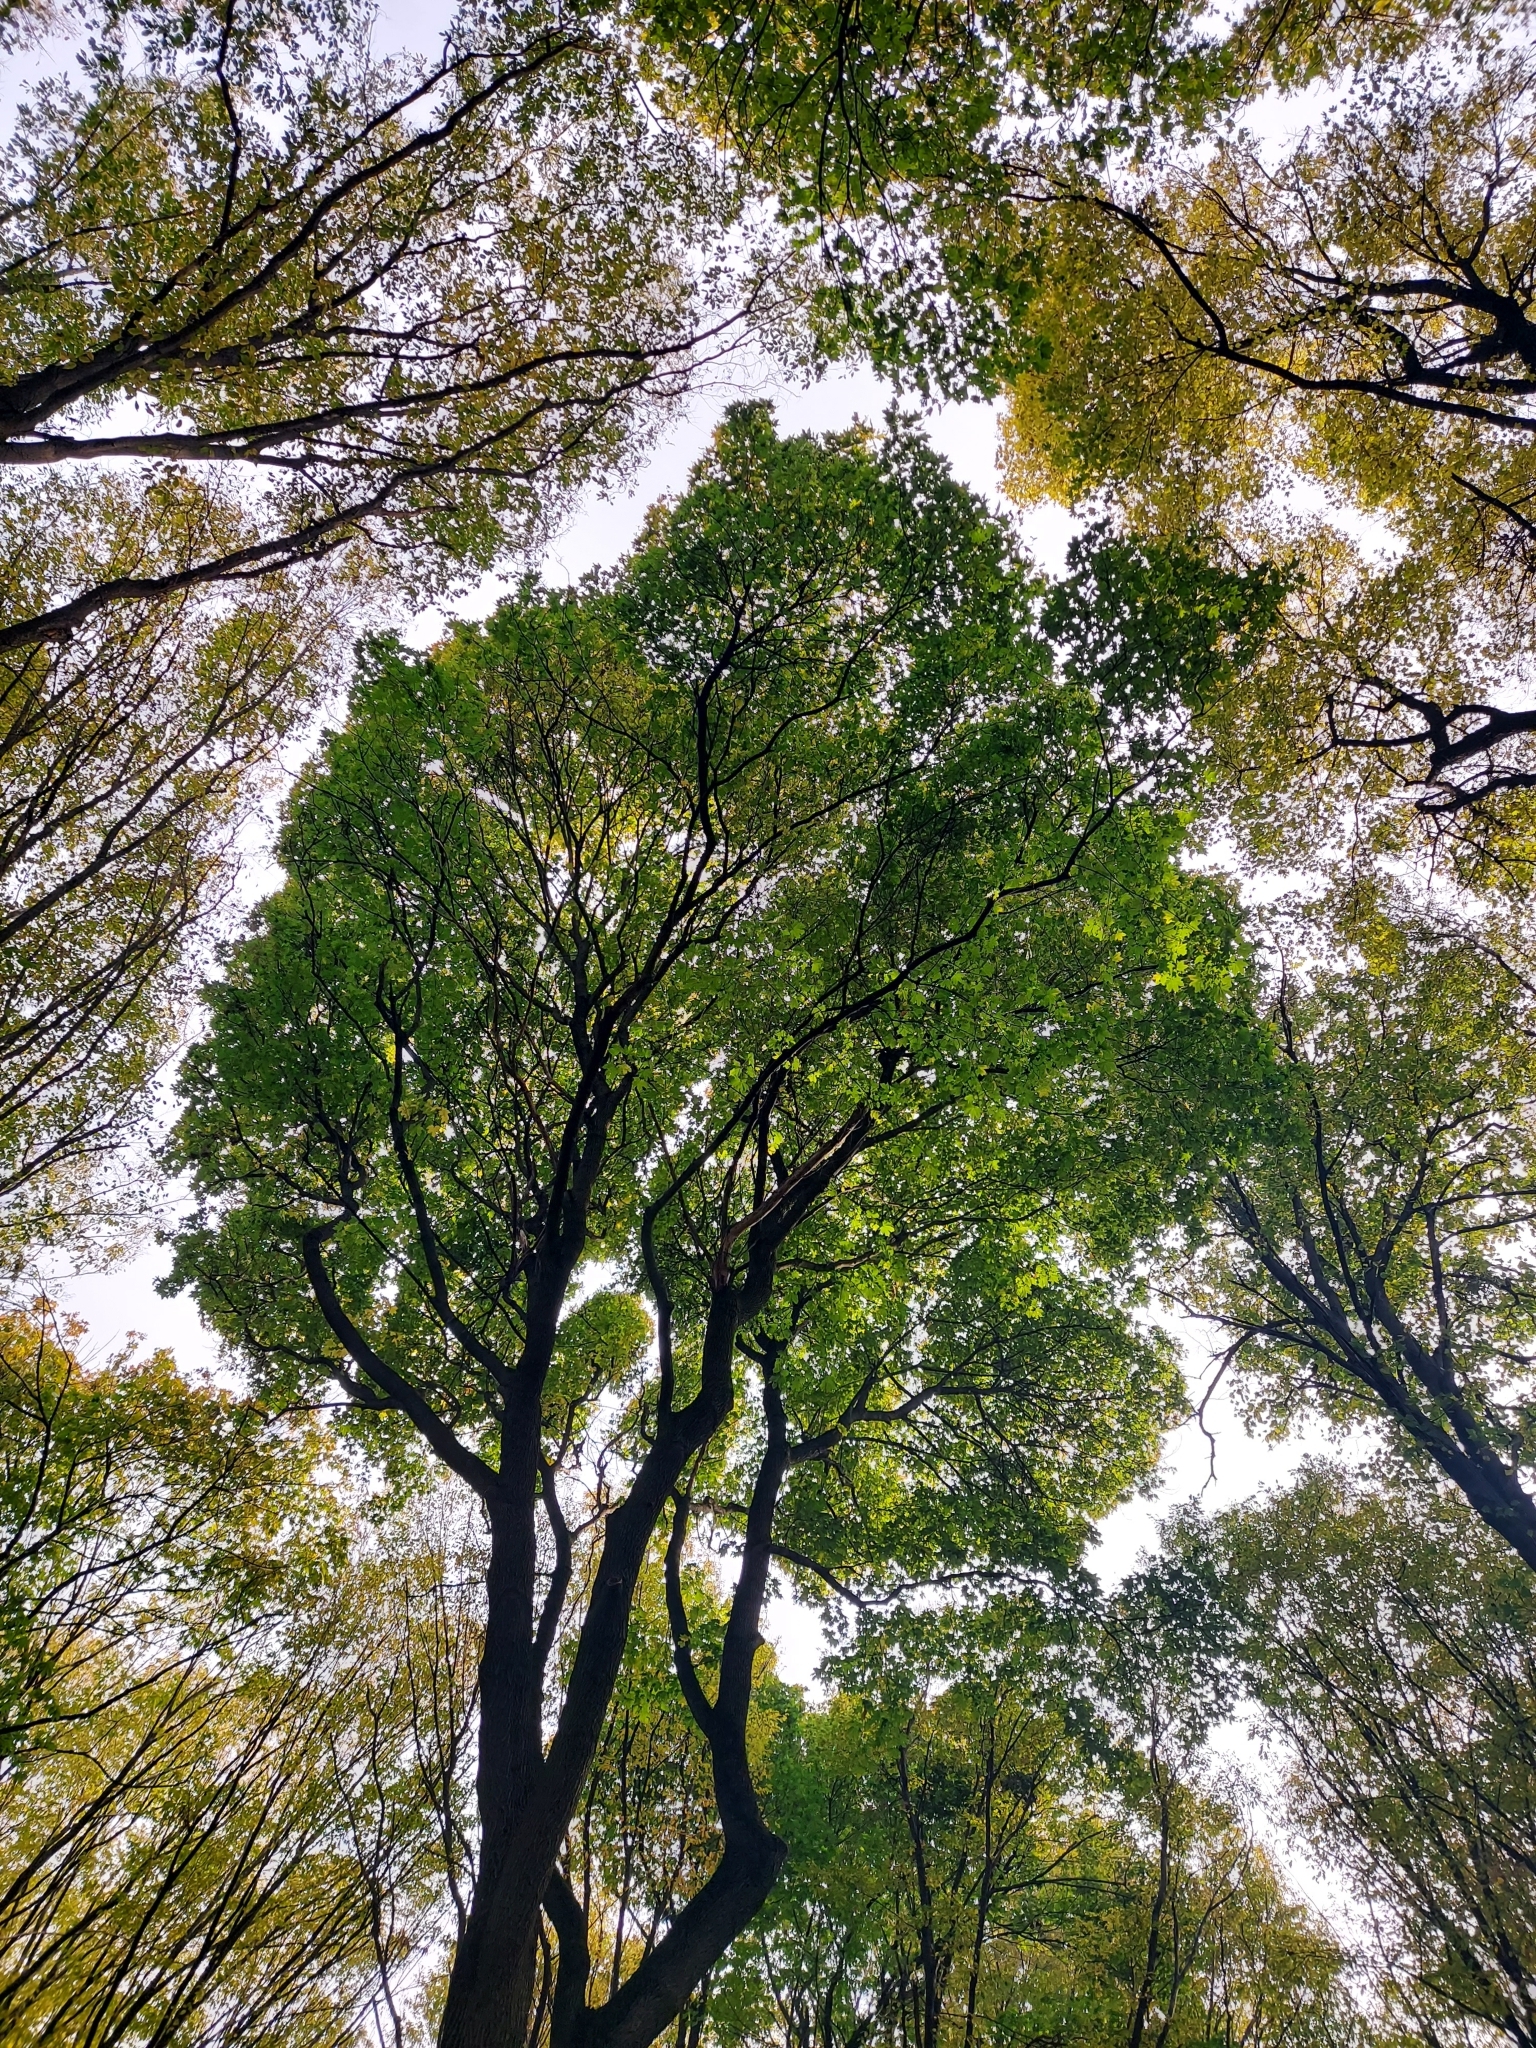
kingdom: Plantae
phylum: Tracheophyta
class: Magnoliopsida
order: Sapindales
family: Sapindaceae
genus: Acer
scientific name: Acer platanoides
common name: Norway maple
